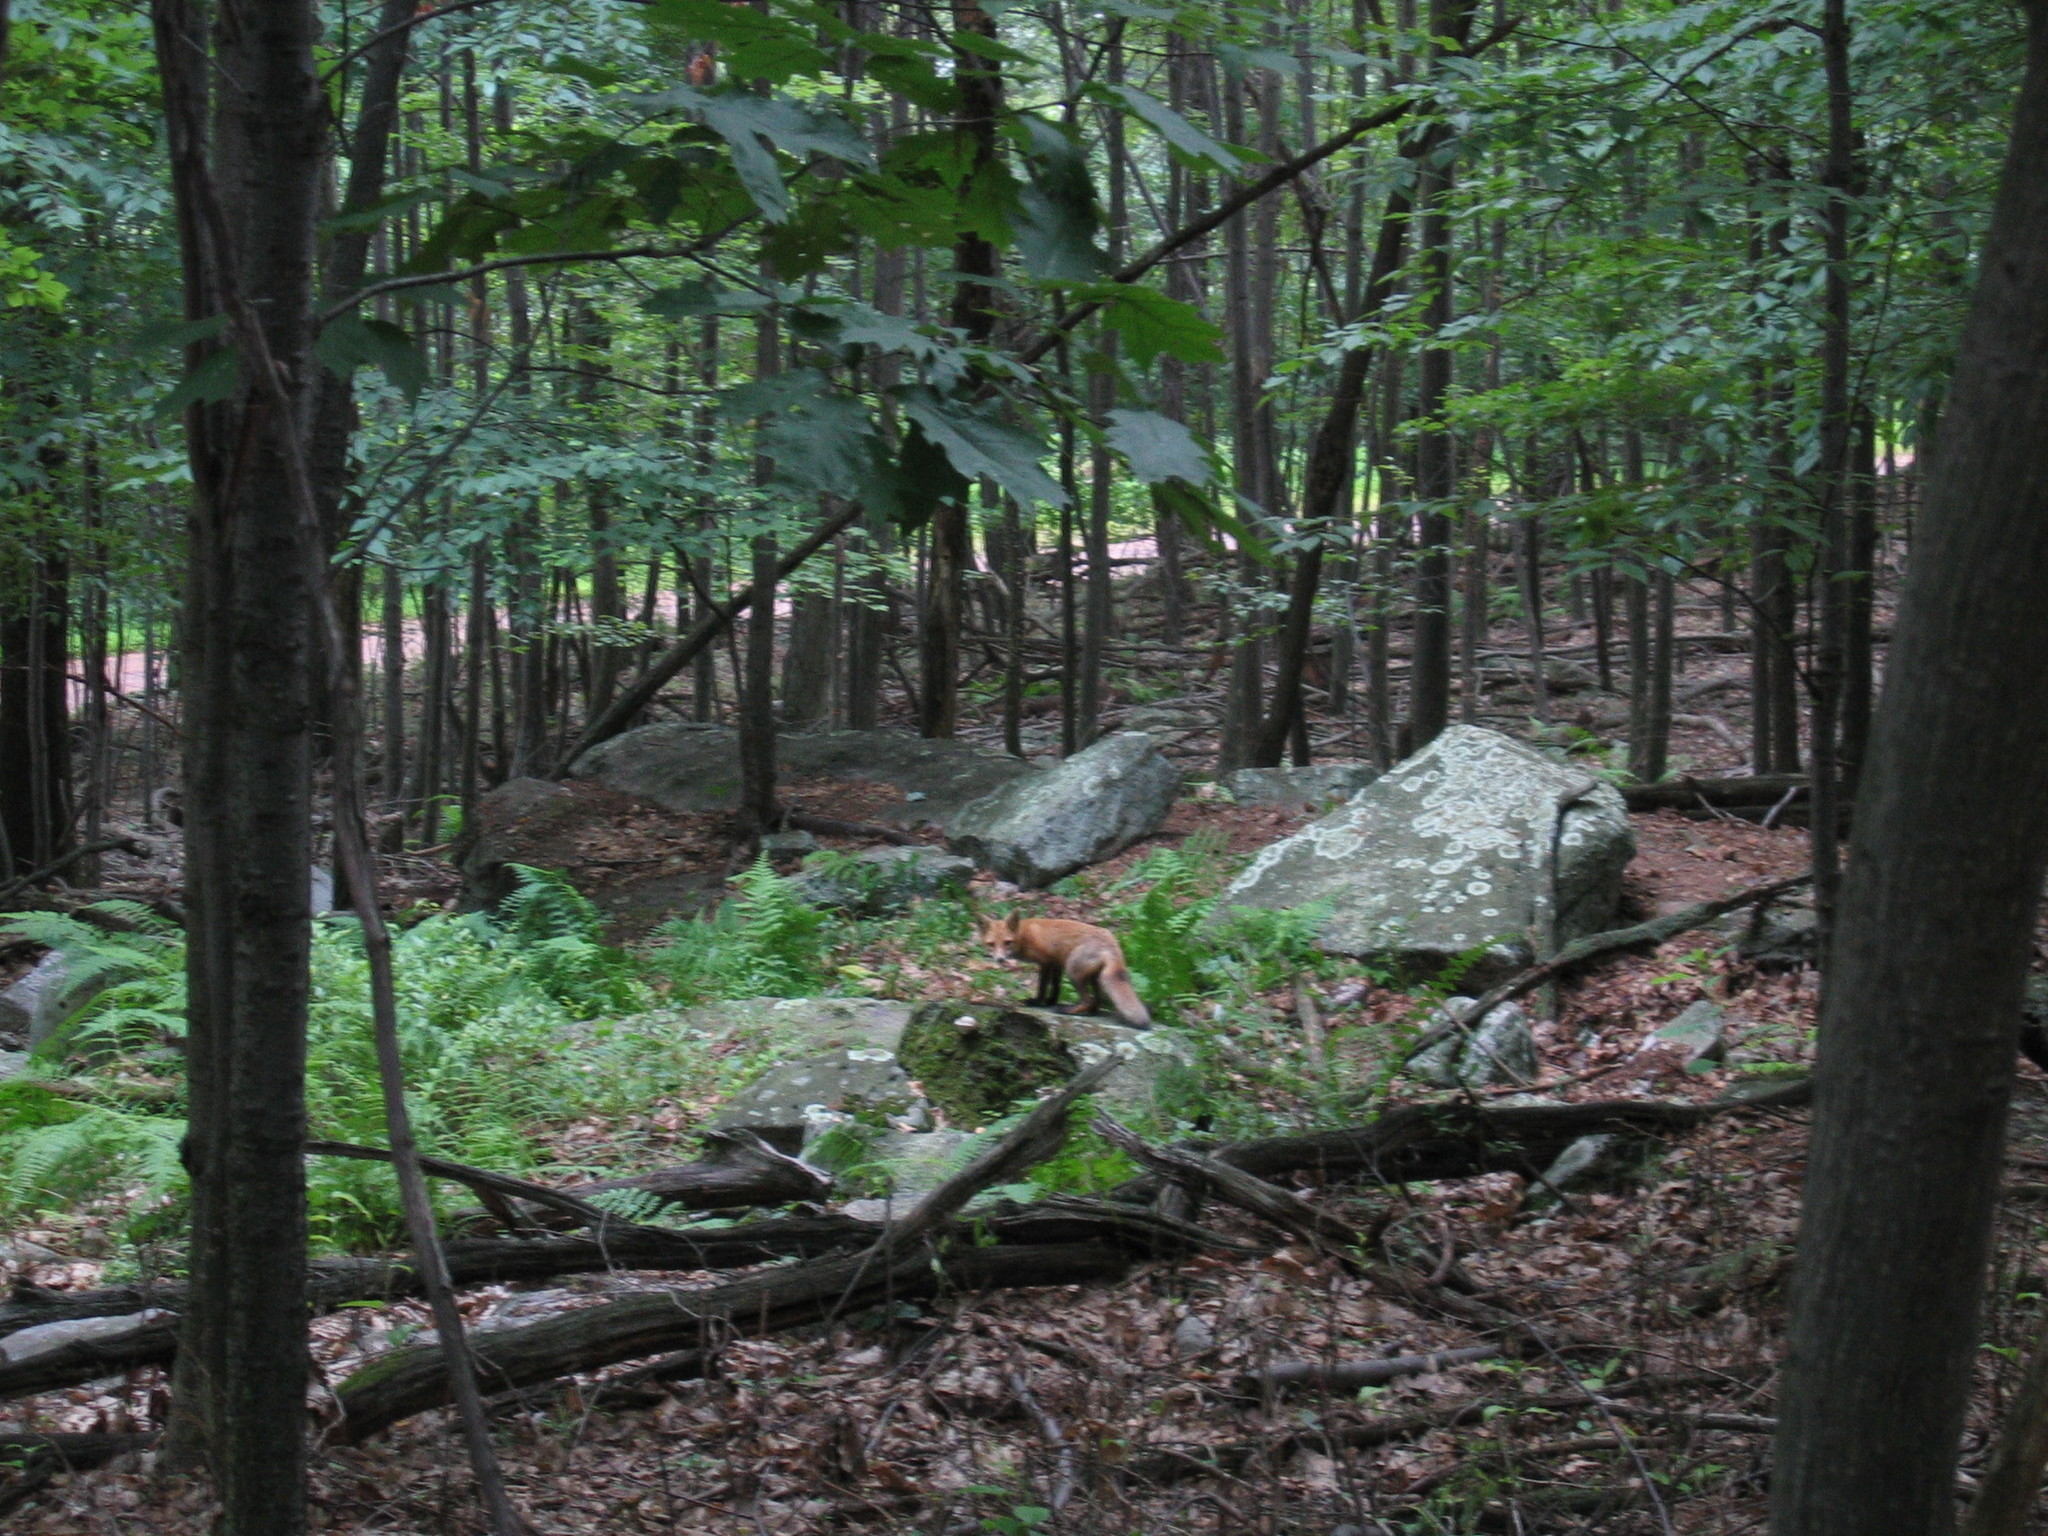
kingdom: Animalia
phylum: Chordata
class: Mammalia
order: Carnivora
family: Canidae
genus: Vulpes
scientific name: Vulpes vulpes
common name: Red fox
